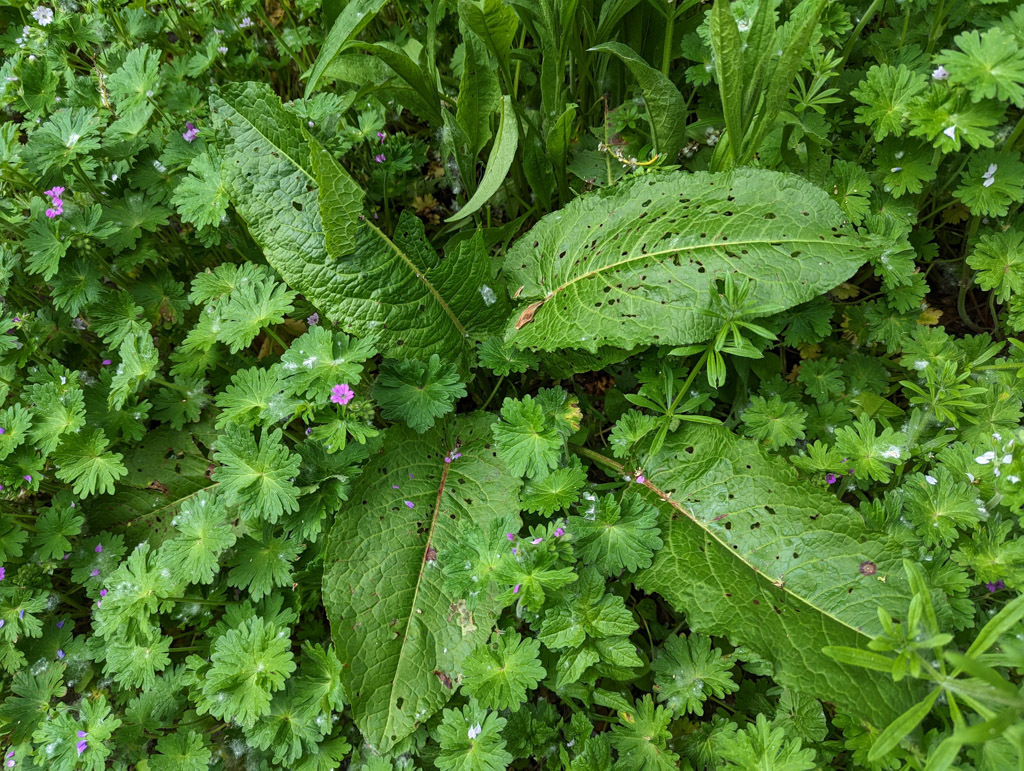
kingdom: Plantae
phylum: Tracheophyta
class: Magnoliopsida
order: Caryophyllales
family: Polygonaceae
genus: Rumex
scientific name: Rumex obtusifolius
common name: Bitter dock
